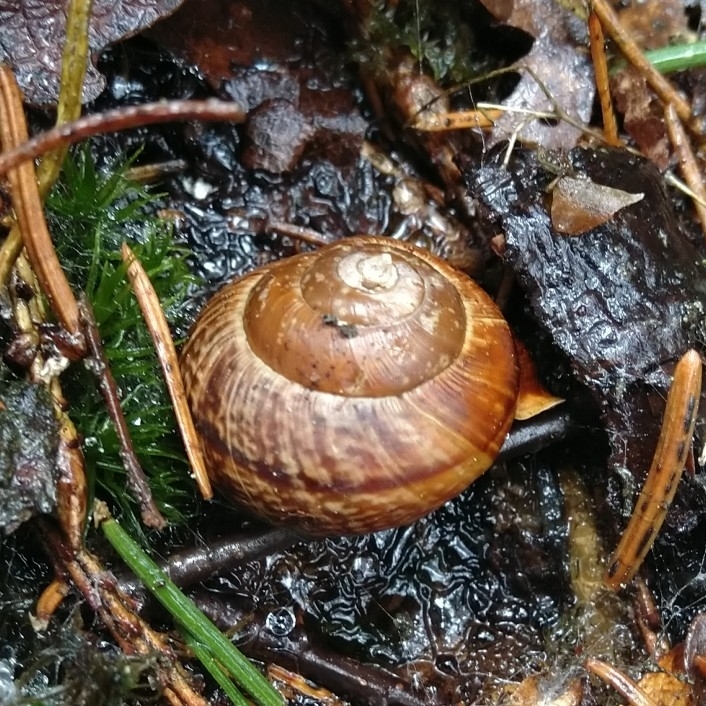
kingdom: Animalia
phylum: Mollusca
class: Gastropoda
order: Stylommatophora
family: Helicidae
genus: Arianta
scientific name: Arianta arbustorum
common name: Copse snail
